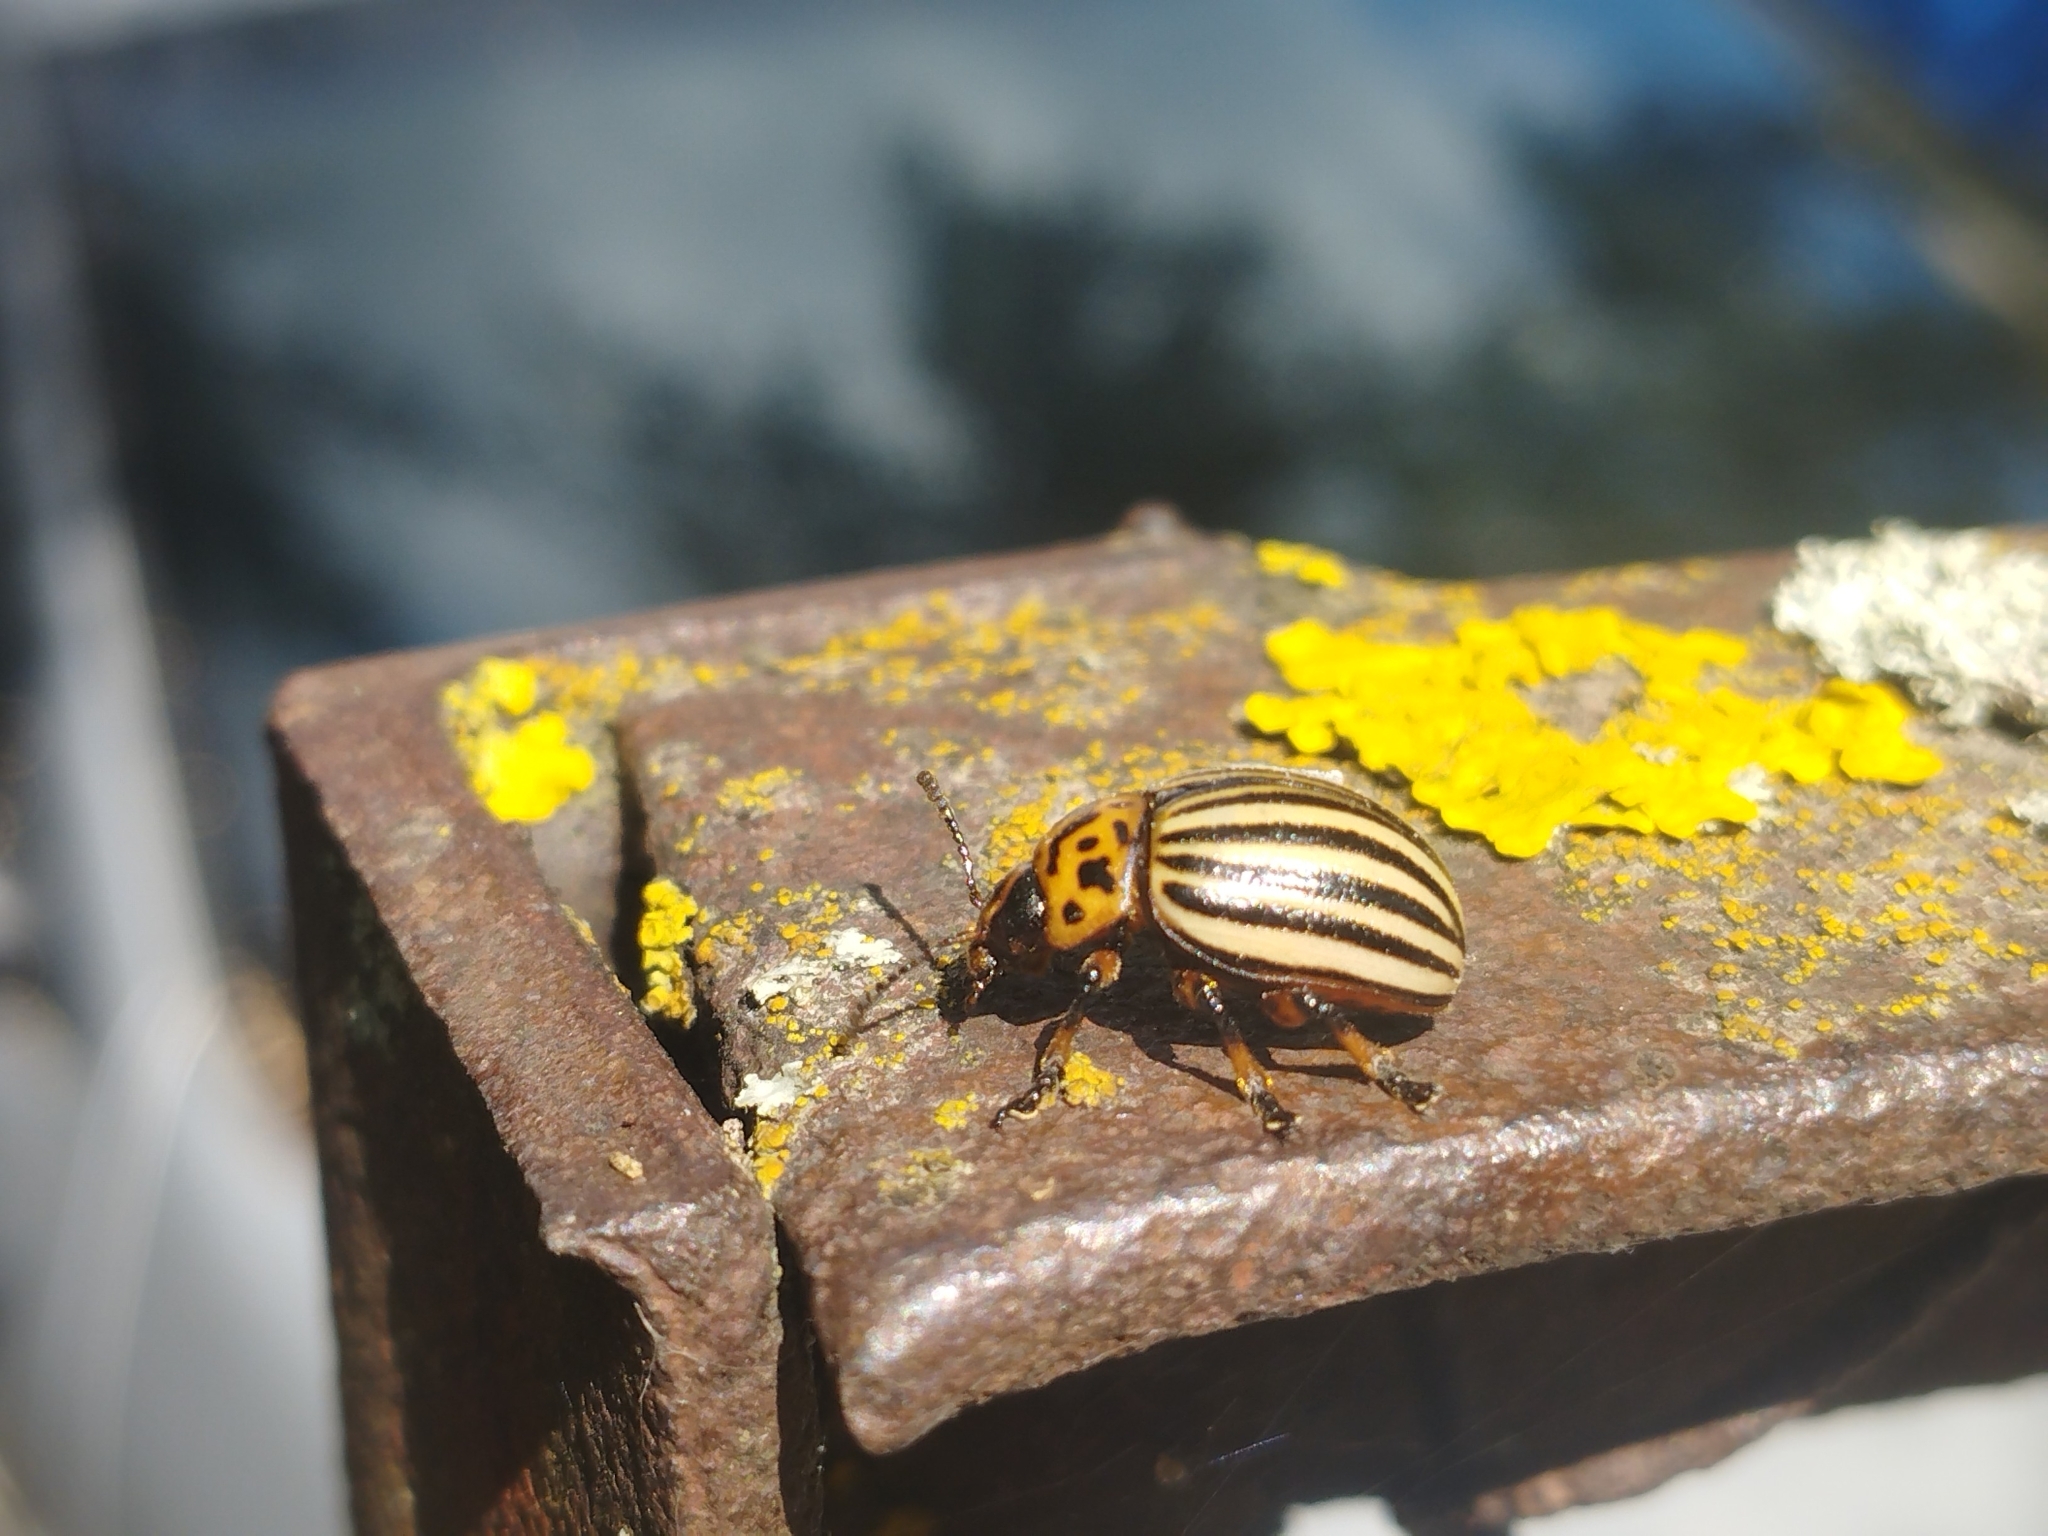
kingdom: Animalia
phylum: Arthropoda
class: Insecta
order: Coleoptera
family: Chrysomelidae
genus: Leptinotarsa
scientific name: Leptinotarsa decemlineata
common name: Colorado potato beetle
